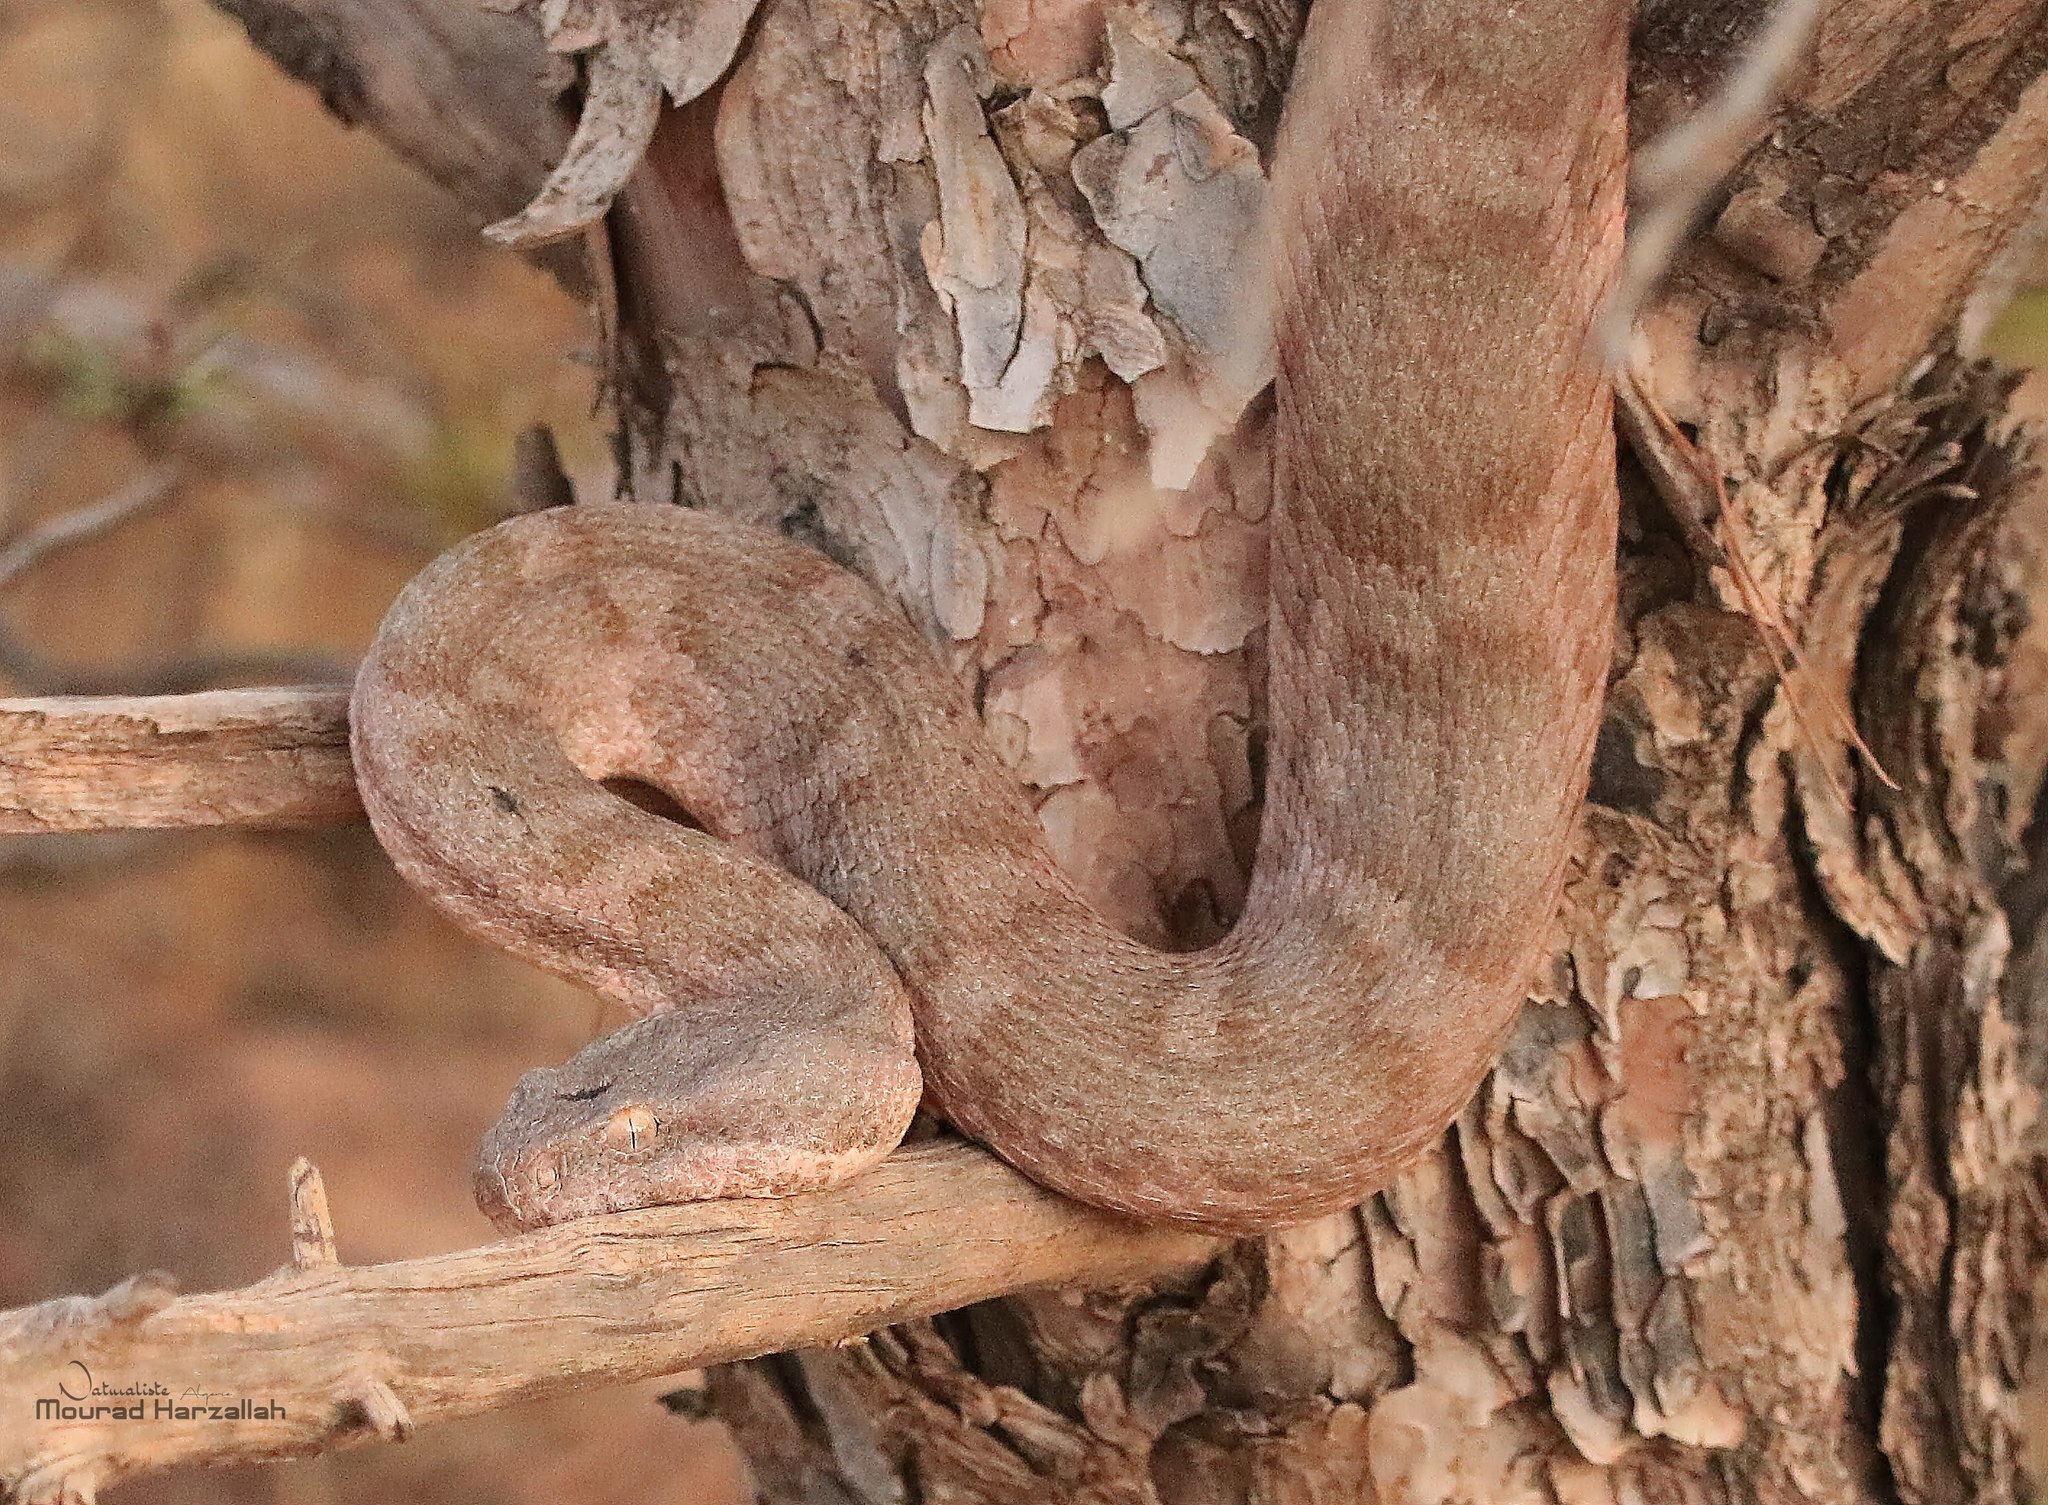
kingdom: Animalia
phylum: Chordata
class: Squamata
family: Viperidae
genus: Daboia
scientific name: Daboia mauritanica
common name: Moorish viper
